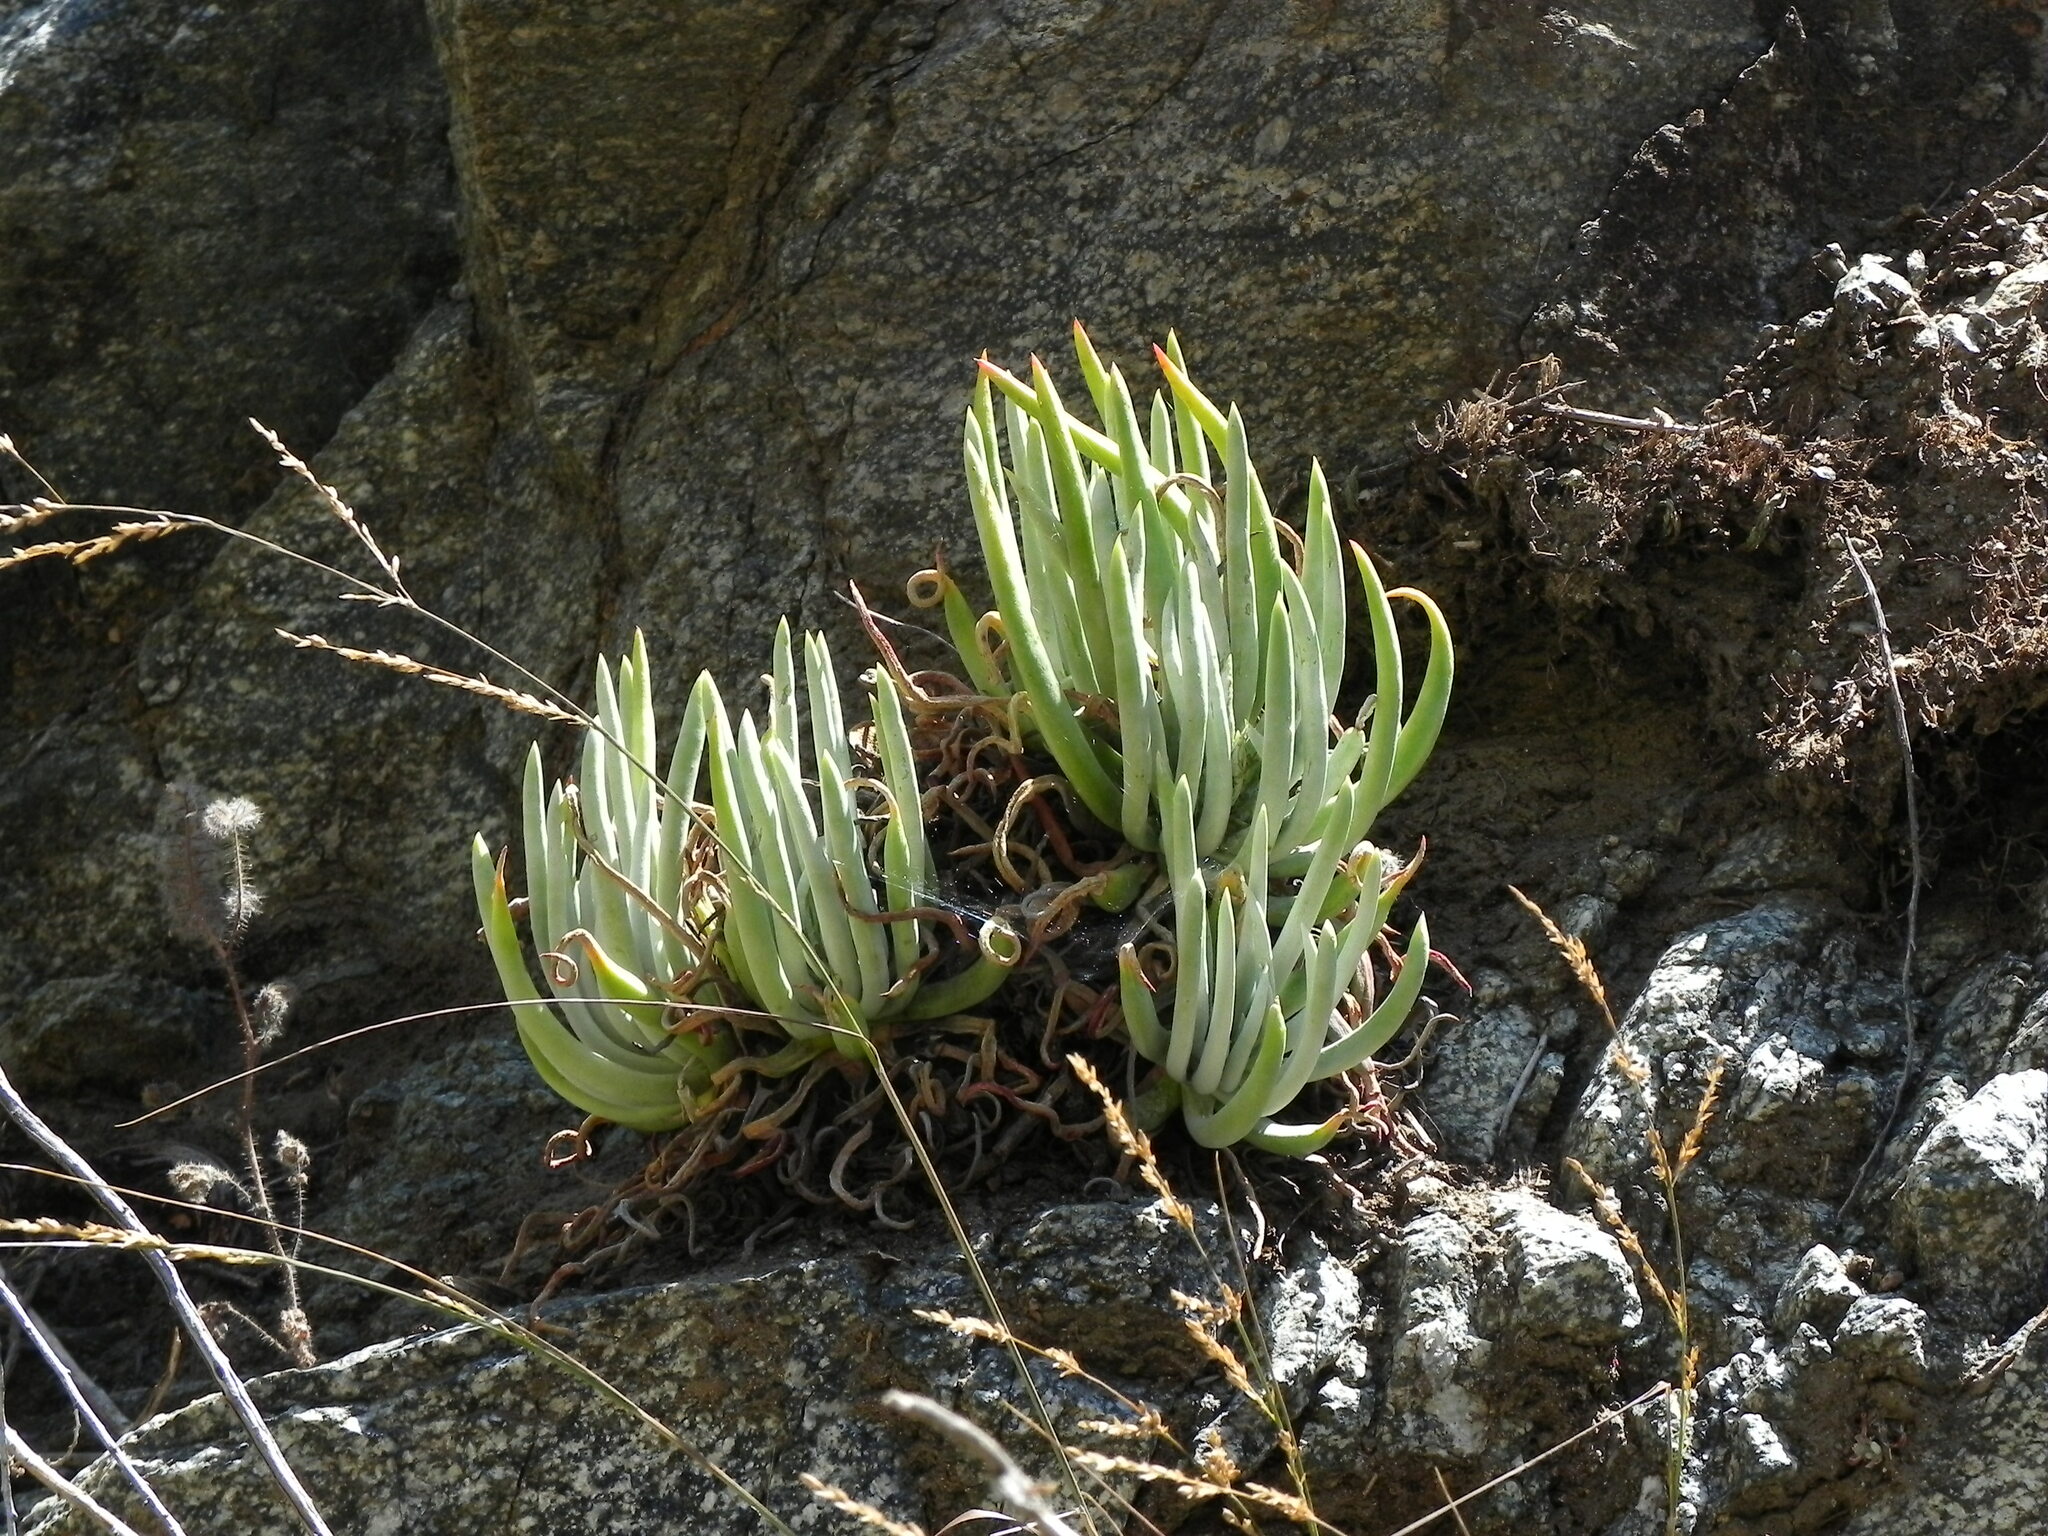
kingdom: Plantae
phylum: Tracheophyta
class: Magnoliopsida
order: Saxifragales
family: Crassulaceae
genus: Dudleya
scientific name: Dudleya densiflora
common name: San gabriel mountains dudleya
